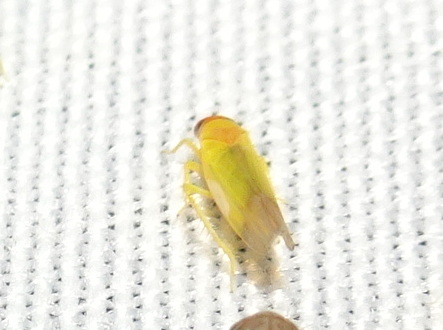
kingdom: Animalia
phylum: Arthropoda
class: Insecta
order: Hemiptera
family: Cicadellidae
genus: Alebra
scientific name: Alebra rubrafrons
